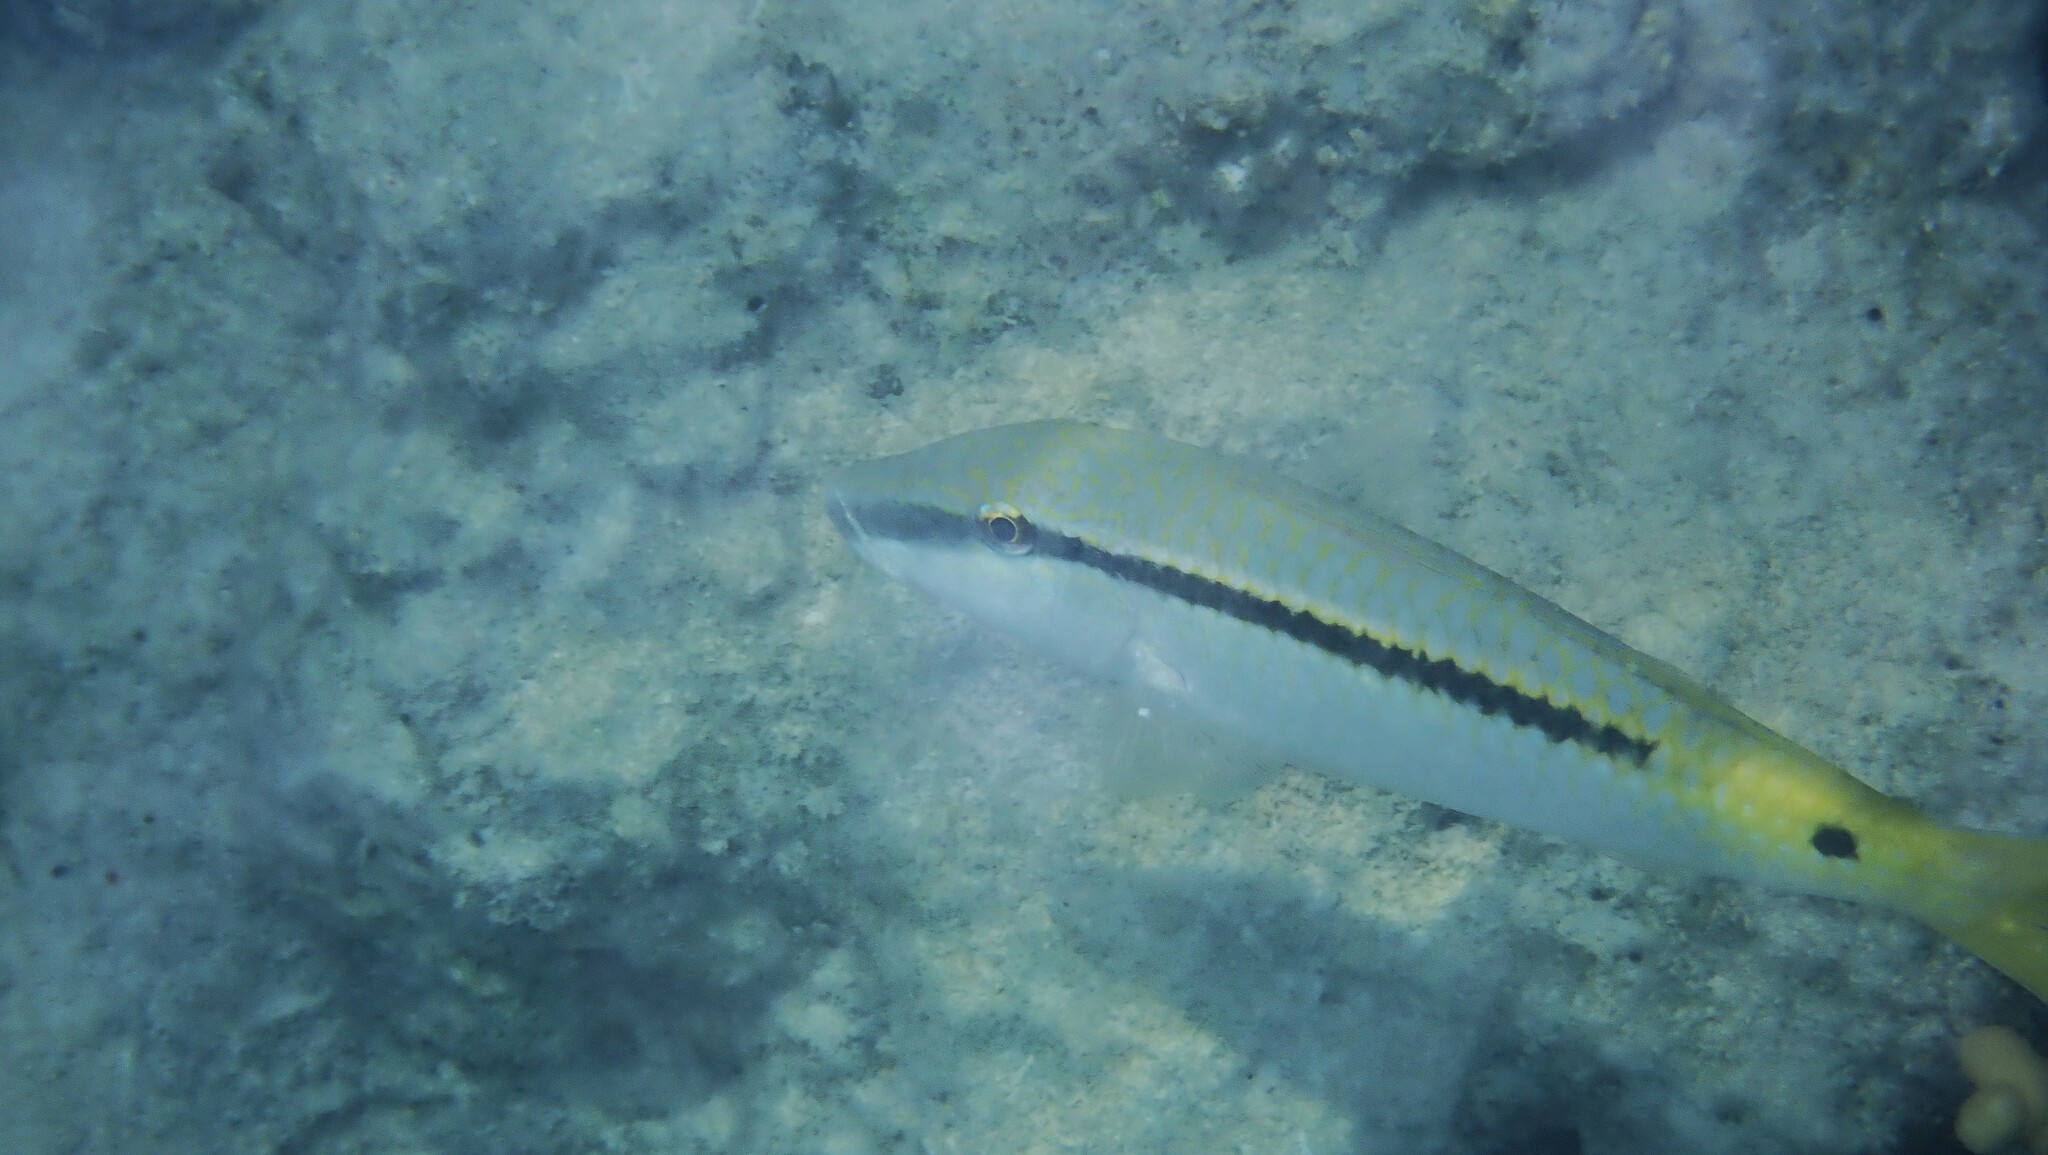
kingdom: Animalia
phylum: Chordata
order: Perciformes
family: Mullidae
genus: Parupeneus
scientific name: Parupeneus forsskali
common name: Red sea goatfish
